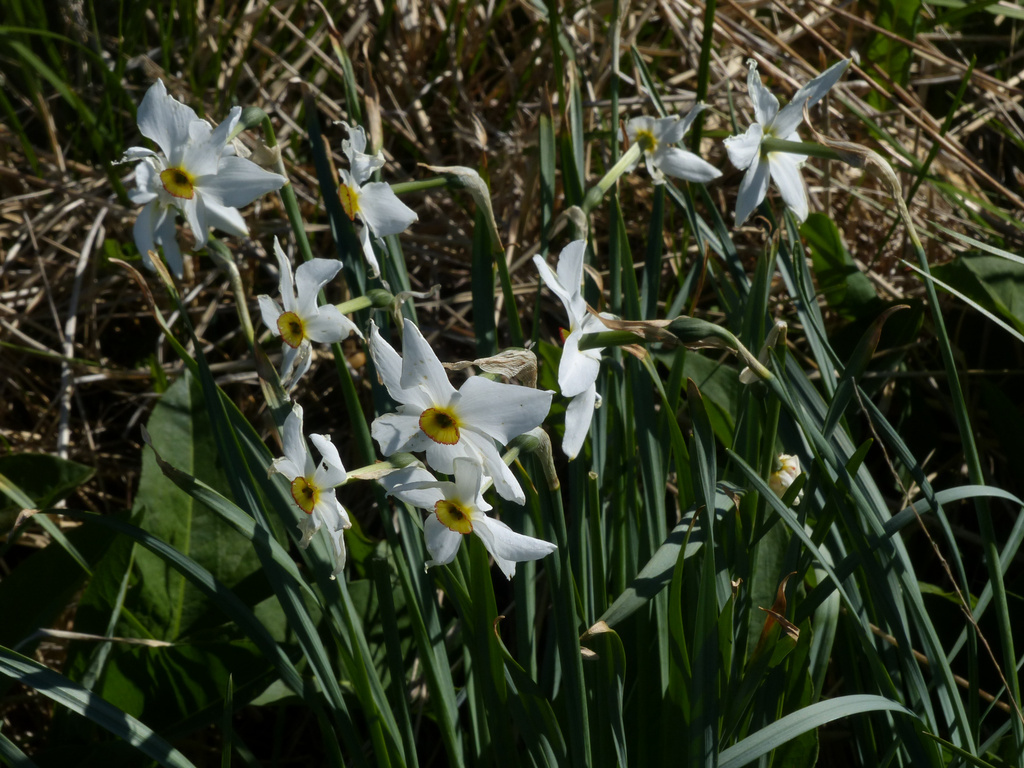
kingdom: Plantae
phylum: Tracheophyta
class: Liliopsida
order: Asparagales
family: Amaryllidaceae
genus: Narcissus
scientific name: Narcissus poeticus
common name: Pheasant's-eye daffodil
